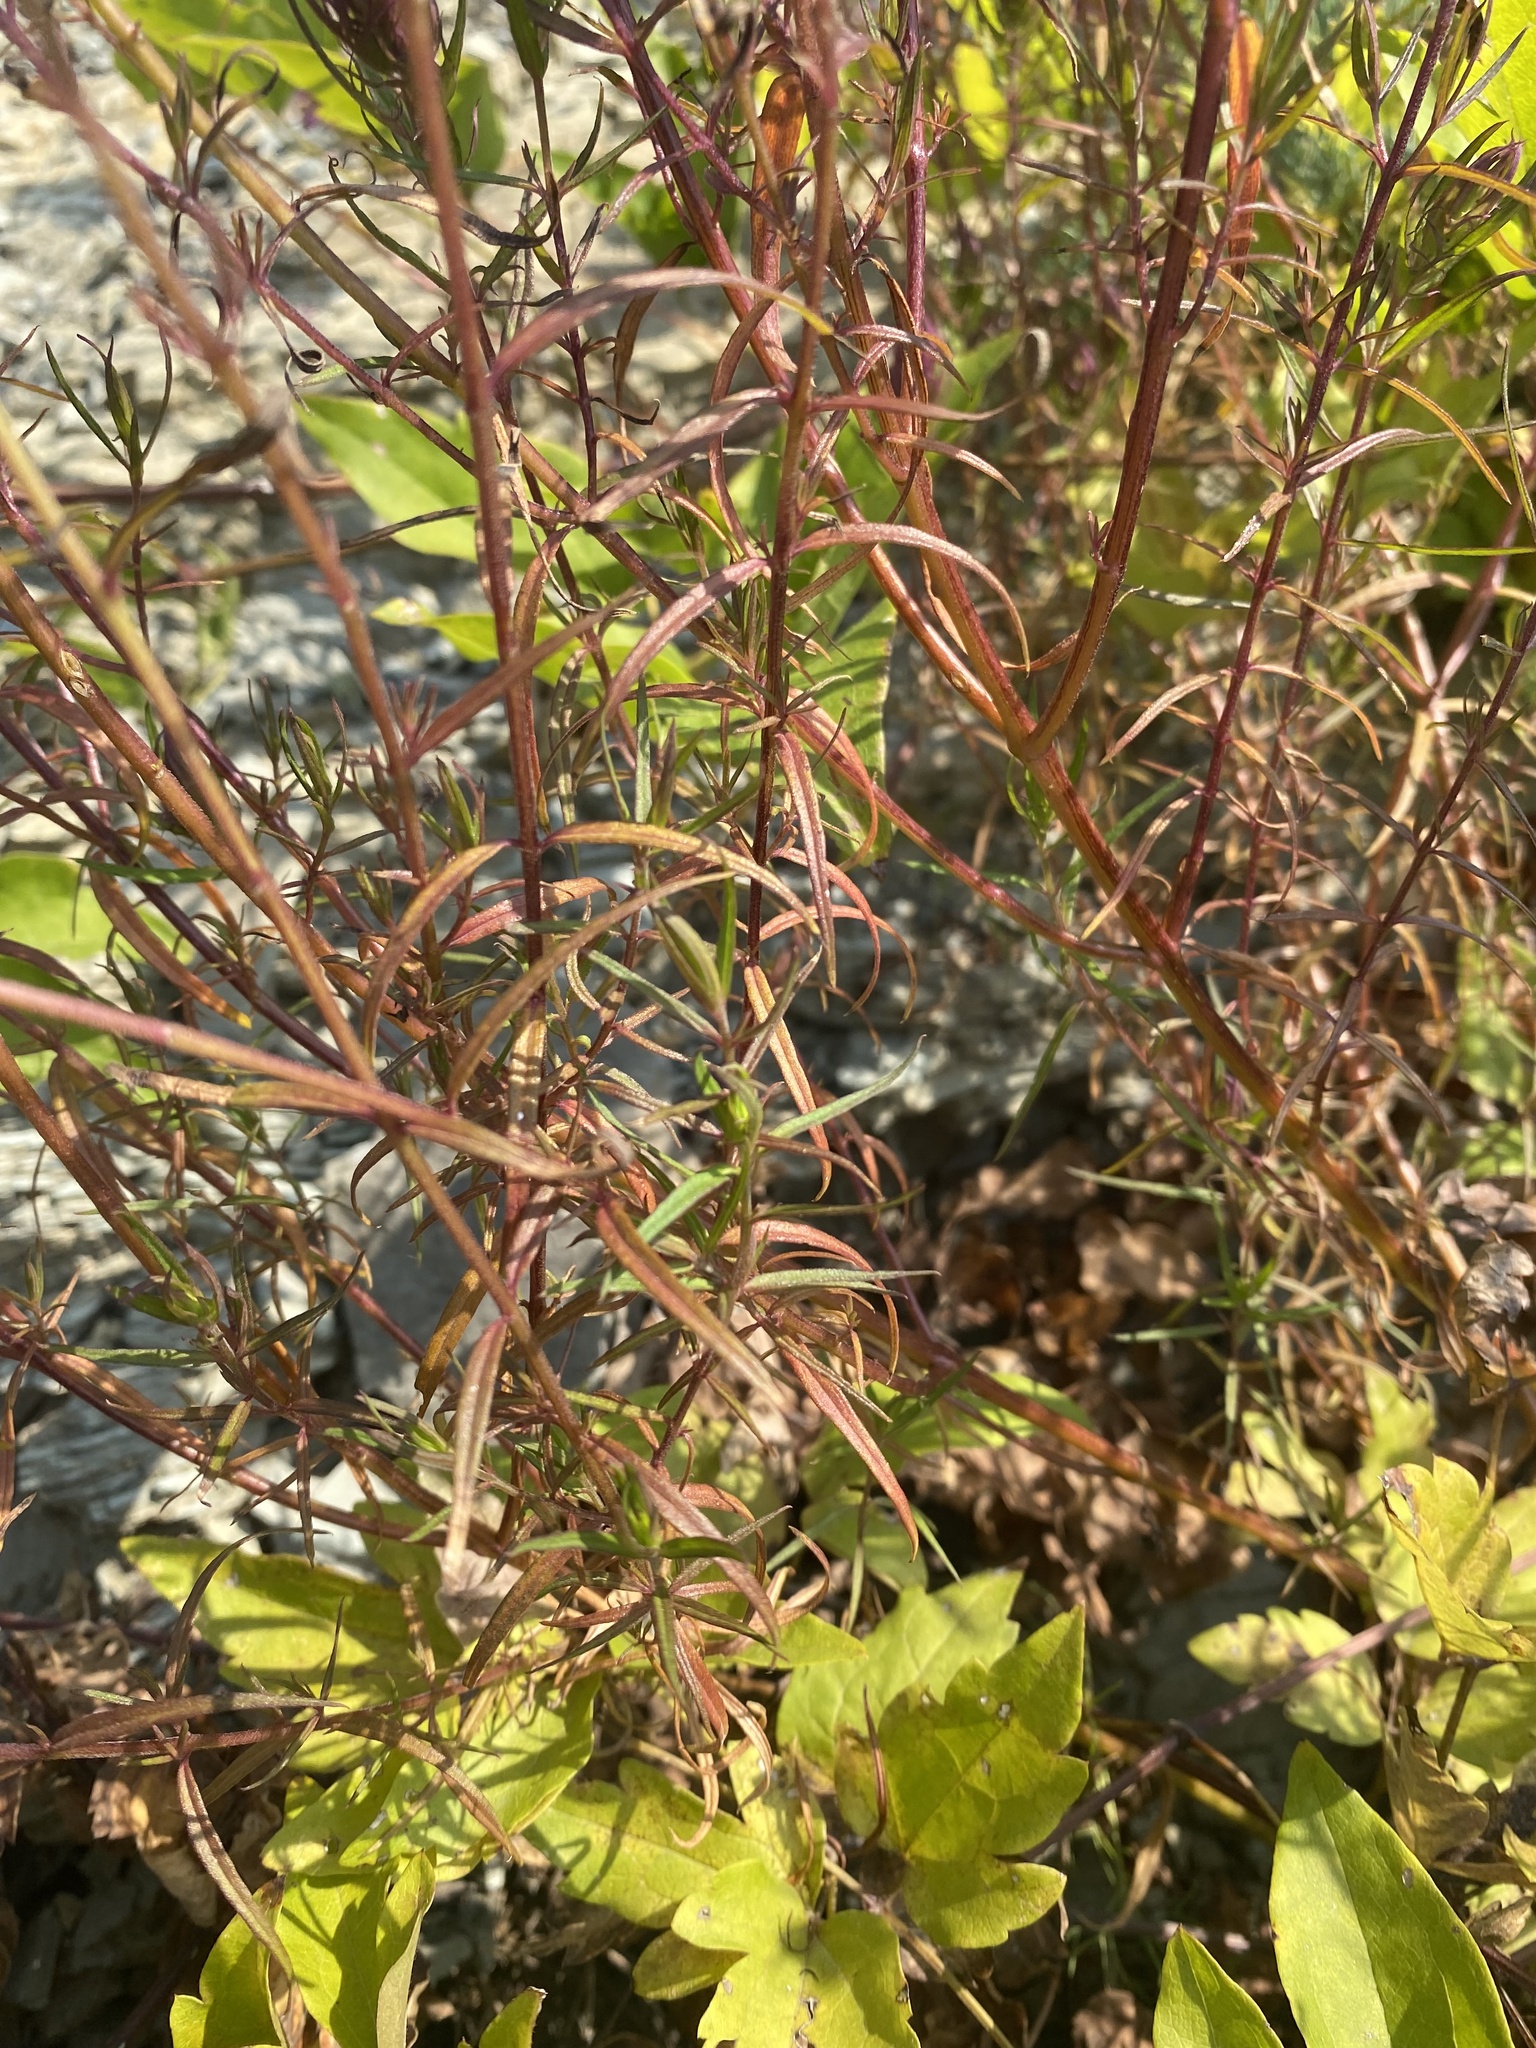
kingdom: Plantae
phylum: Tracheophyta
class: Magnoliopsida
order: Lamiales
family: Orobanchaceae
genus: Melampyrum
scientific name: Melampyrum arvense
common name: Field cow-wheat
